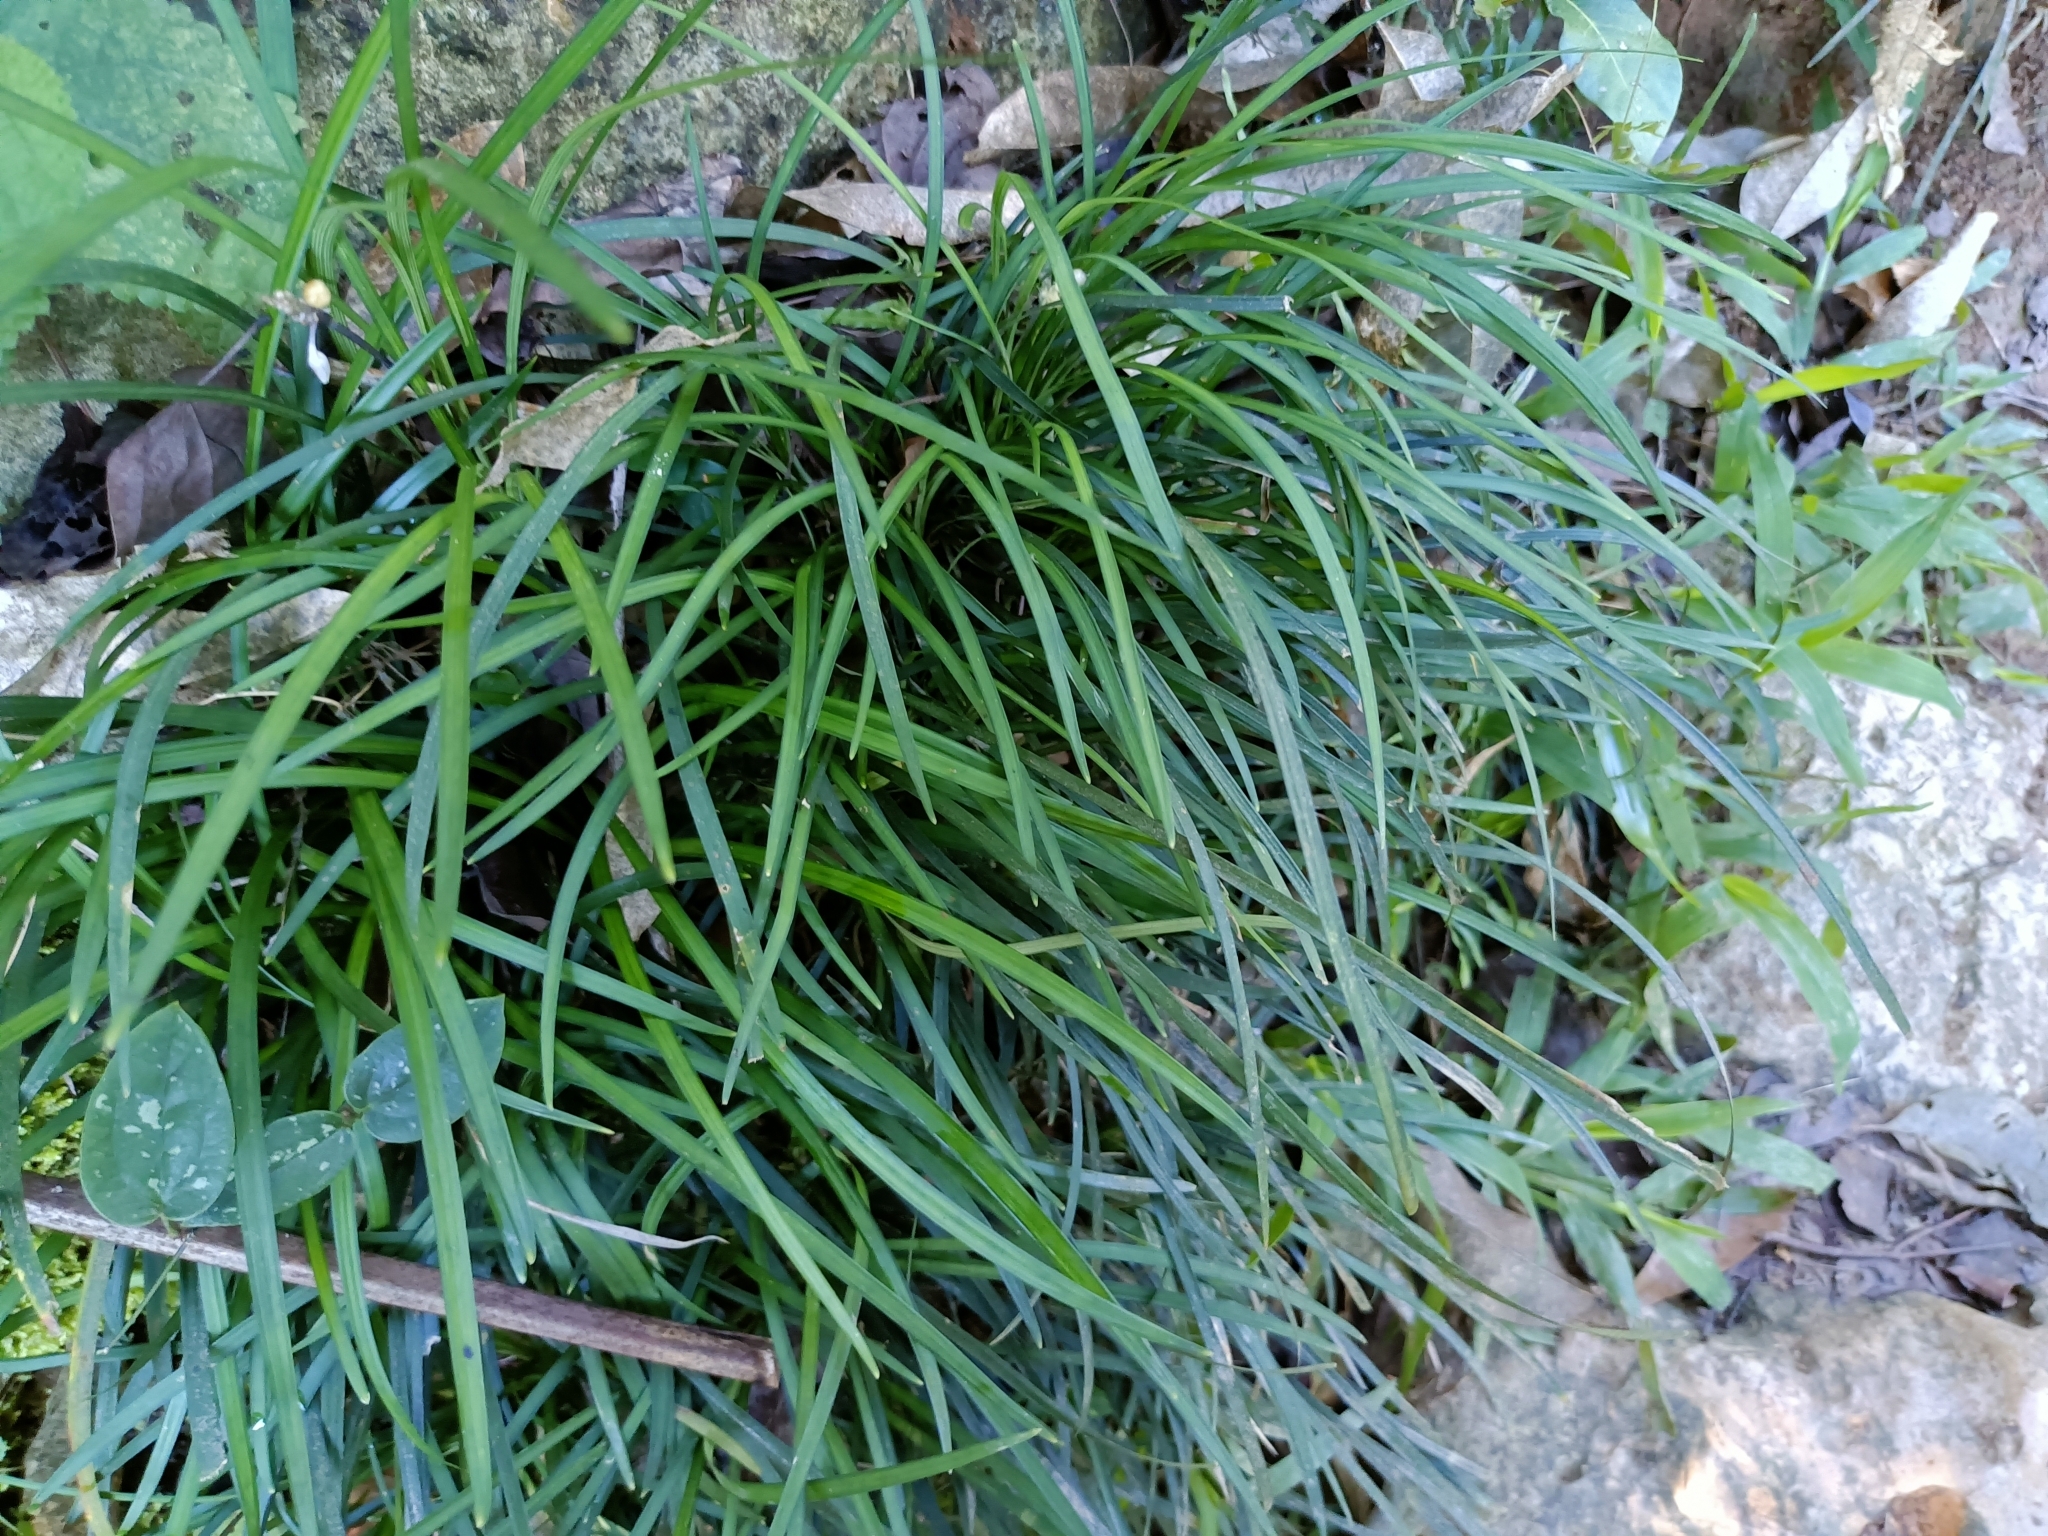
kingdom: Plantae
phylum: Tracheophyta
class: Liliopsida
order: Asparagales
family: Asparagaceae
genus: Ophiopogon
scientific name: Ophiopogon bodinieri
